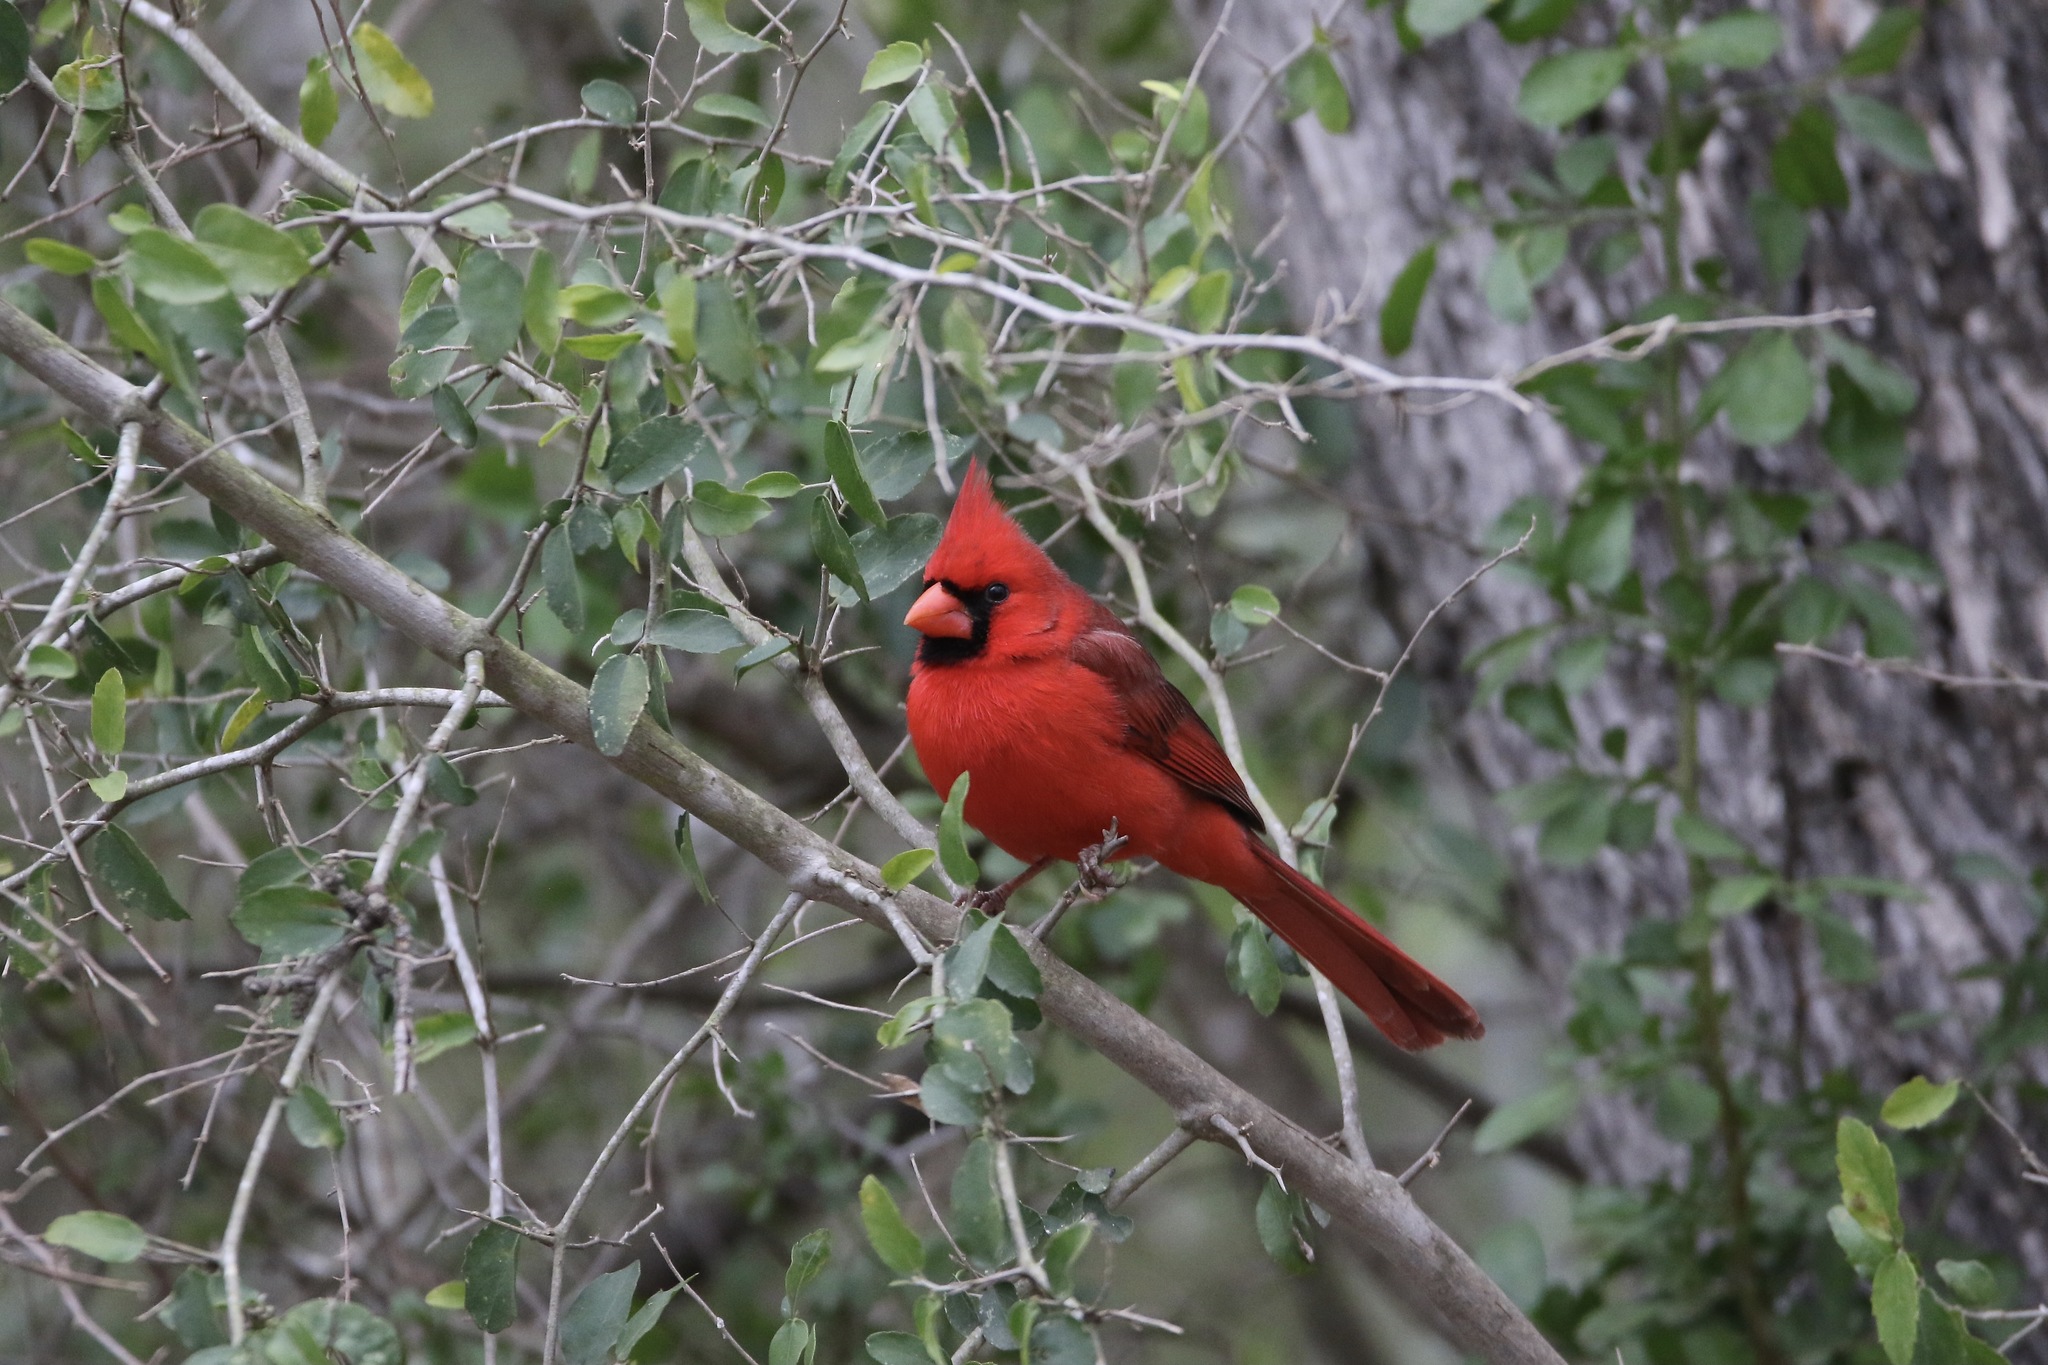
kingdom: Animalia
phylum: Chordata
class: Aves
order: Passeriformes
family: Cardinalidae
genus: Cardinalis
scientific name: Cardinalis cardinalis
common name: Northern cardinal
